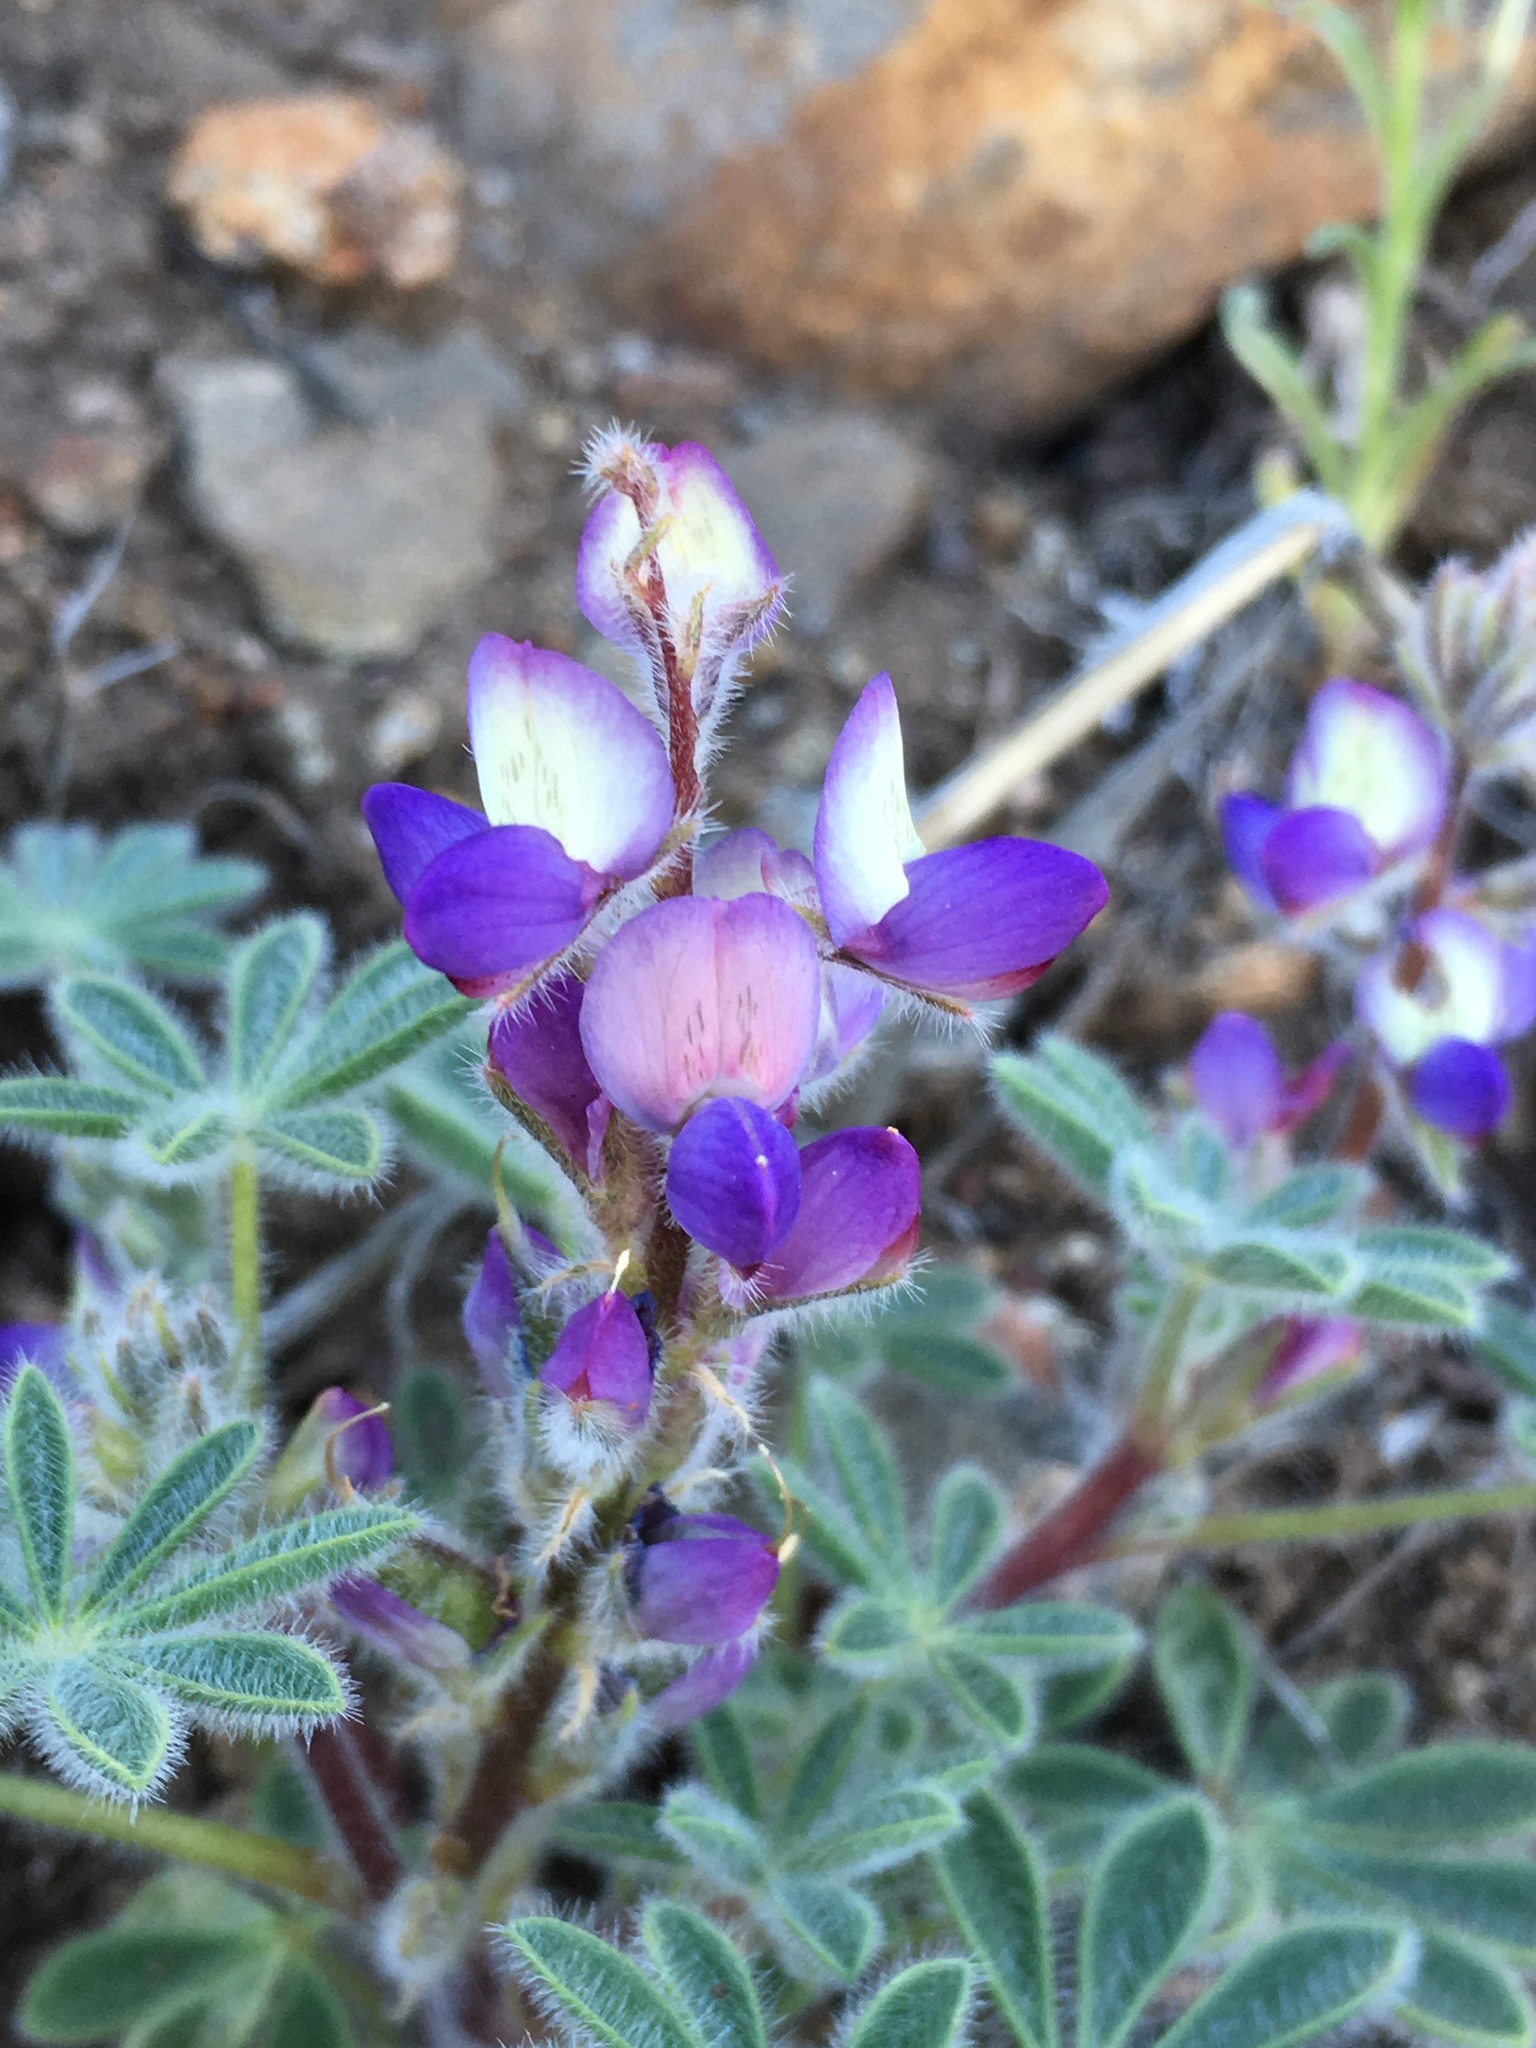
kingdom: Plantae
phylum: Tracheophyta
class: Magnoliopsida
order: Fabales
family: Fabaceae
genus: Lupinus
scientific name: Lupinus concinnus
